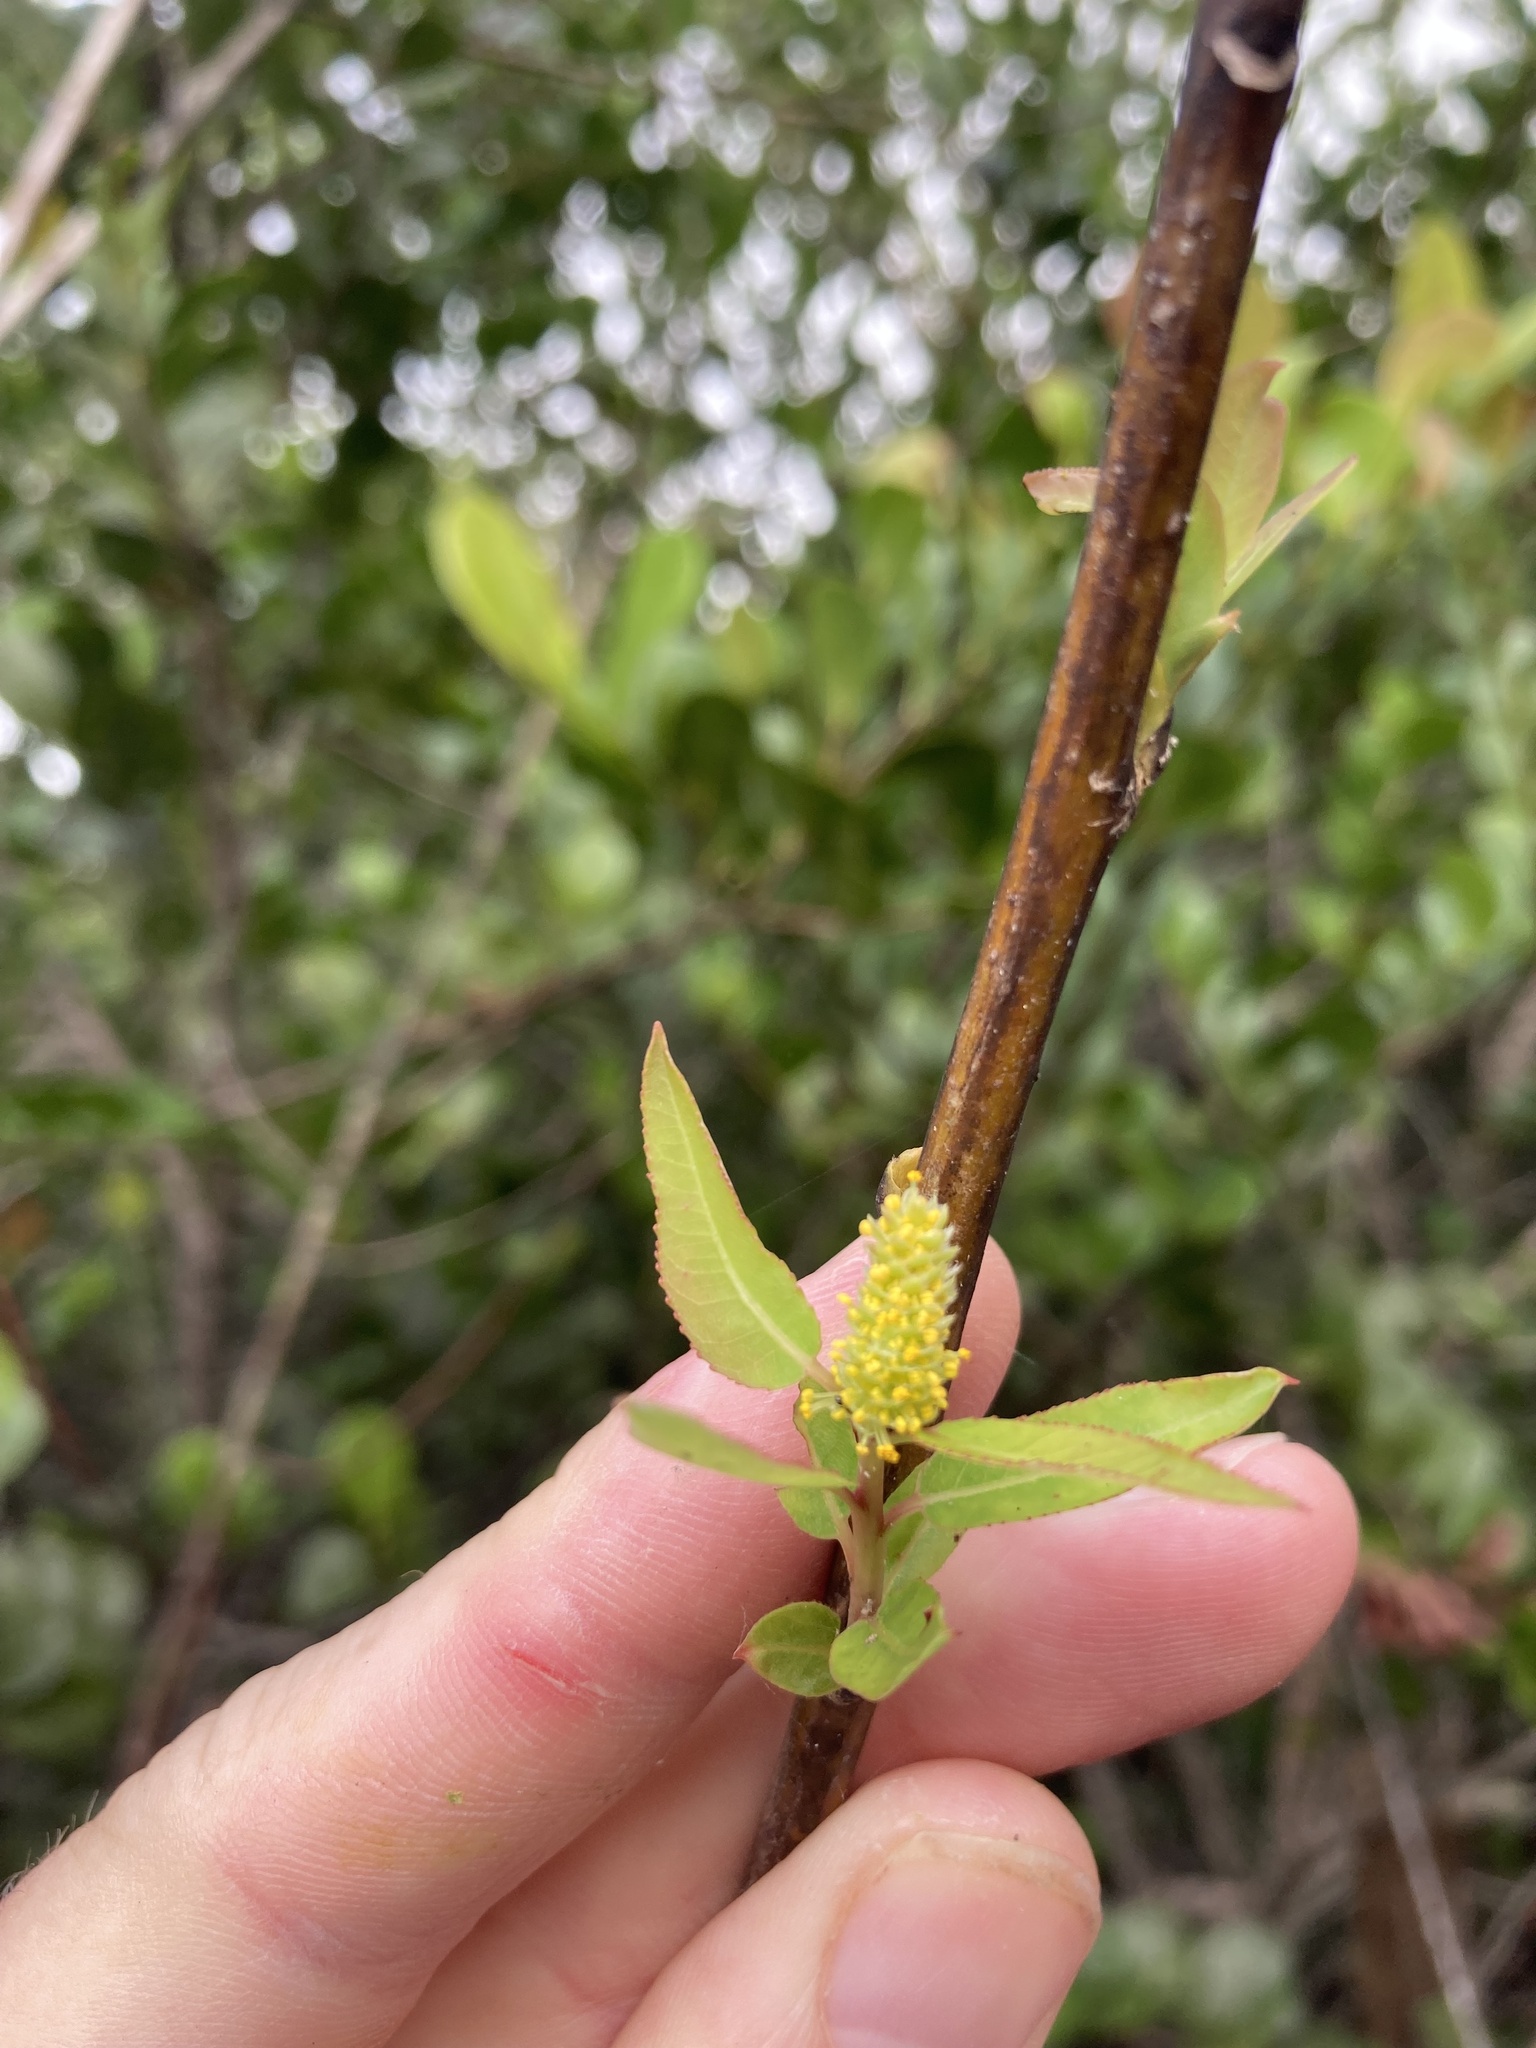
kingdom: Plantae
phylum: Tracheophyta
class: Magnoliopsida
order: Malpighiales
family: Salicaceae
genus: Salix
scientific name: Salix caroliniana
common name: Carolina willow
